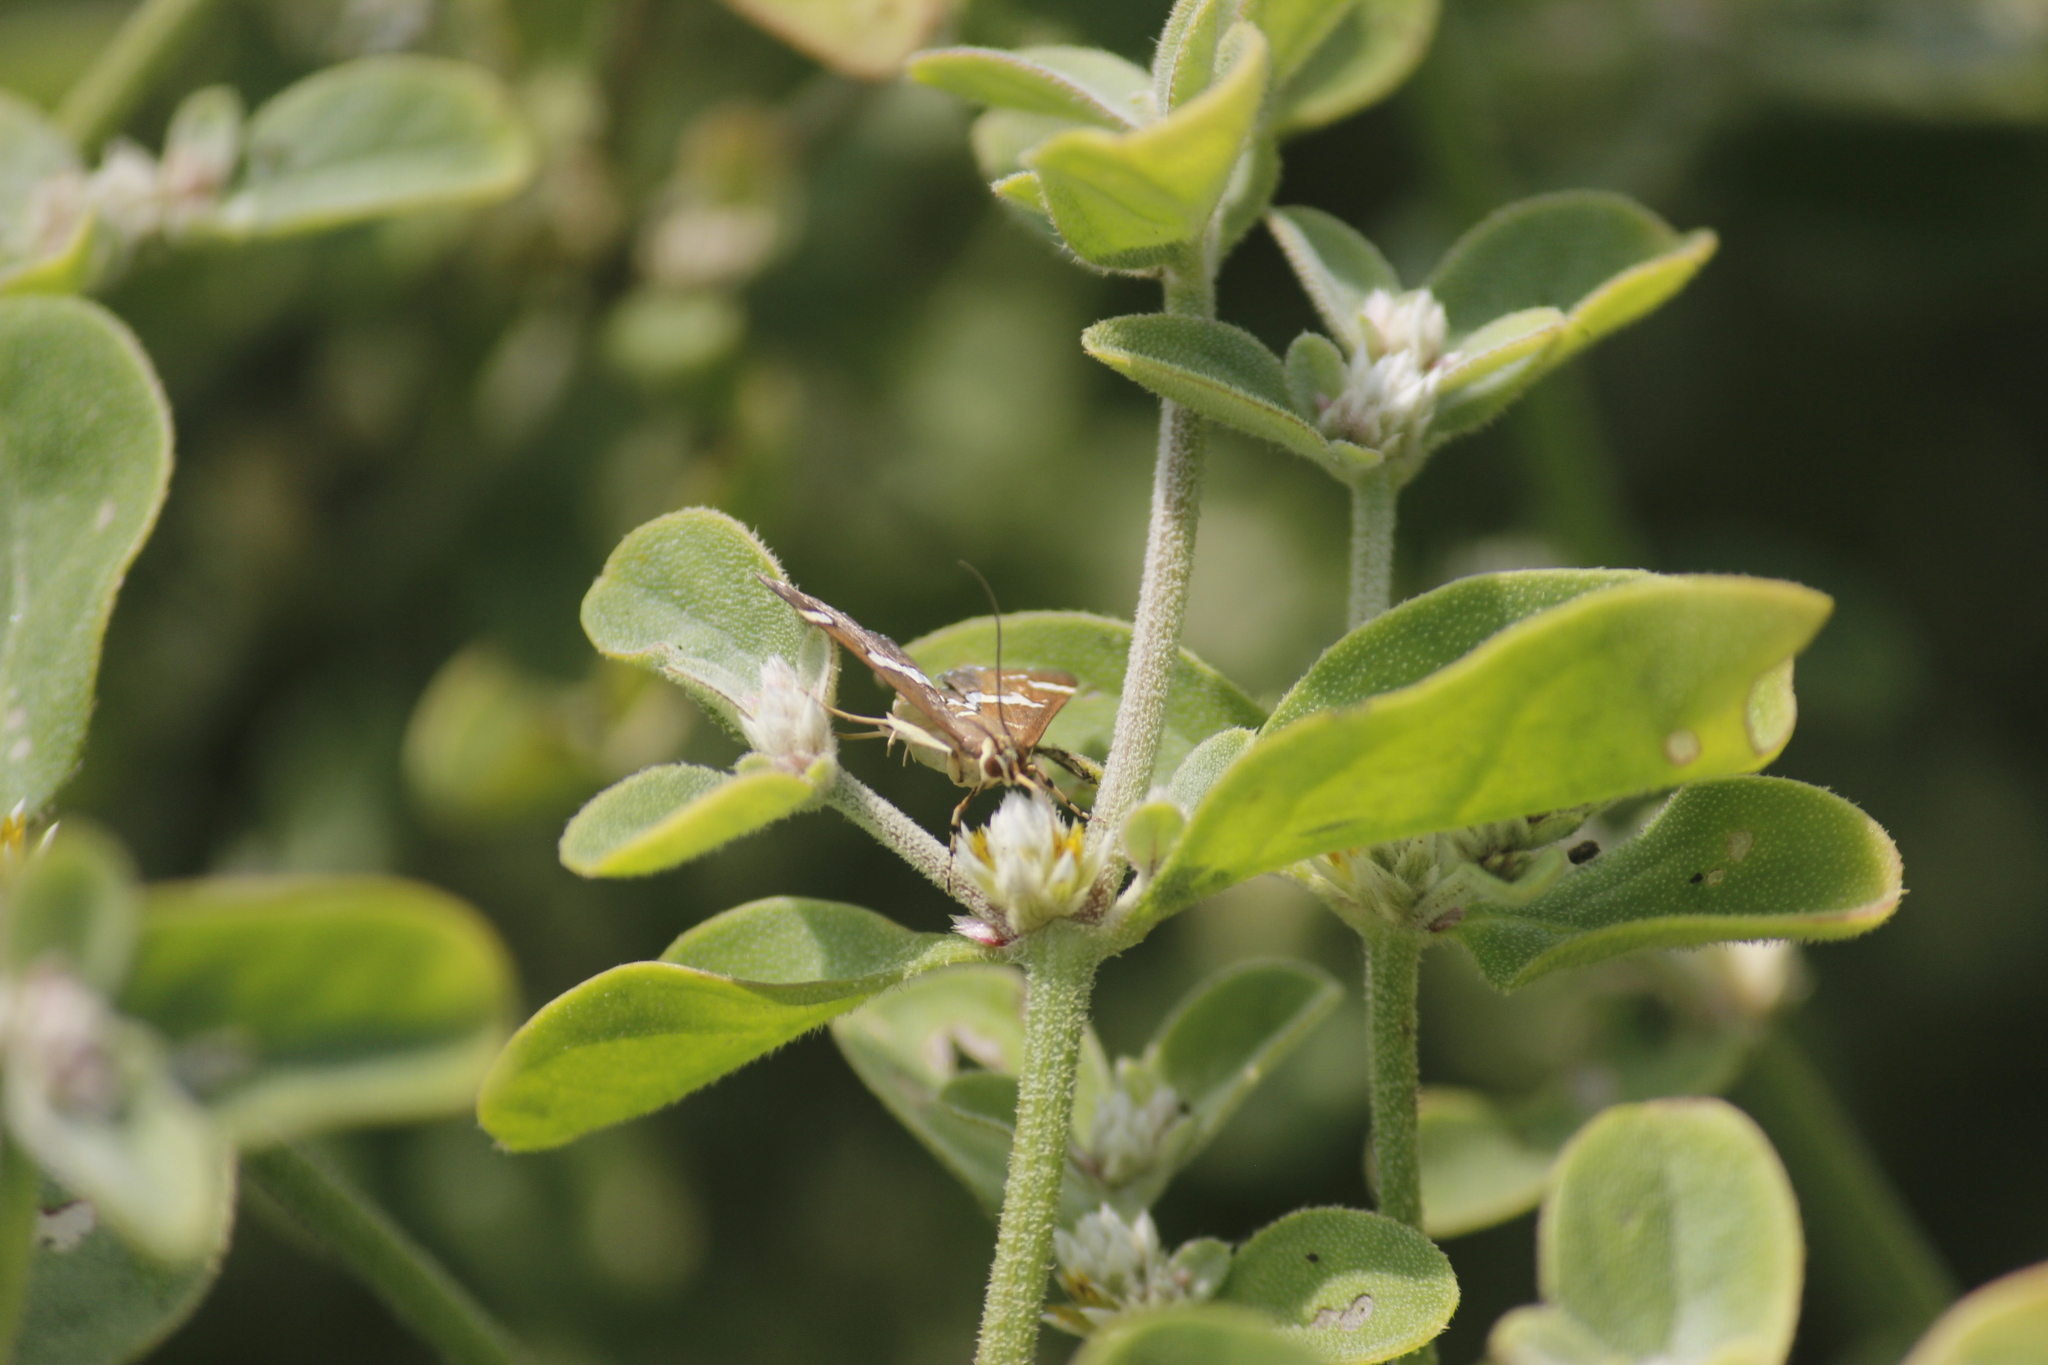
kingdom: Animalia
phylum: Arthropoda
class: Insecta
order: Lepidoptera
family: Crambidae
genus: Spoladea
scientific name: Spoladea recurvalis
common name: Beet webworm moth
